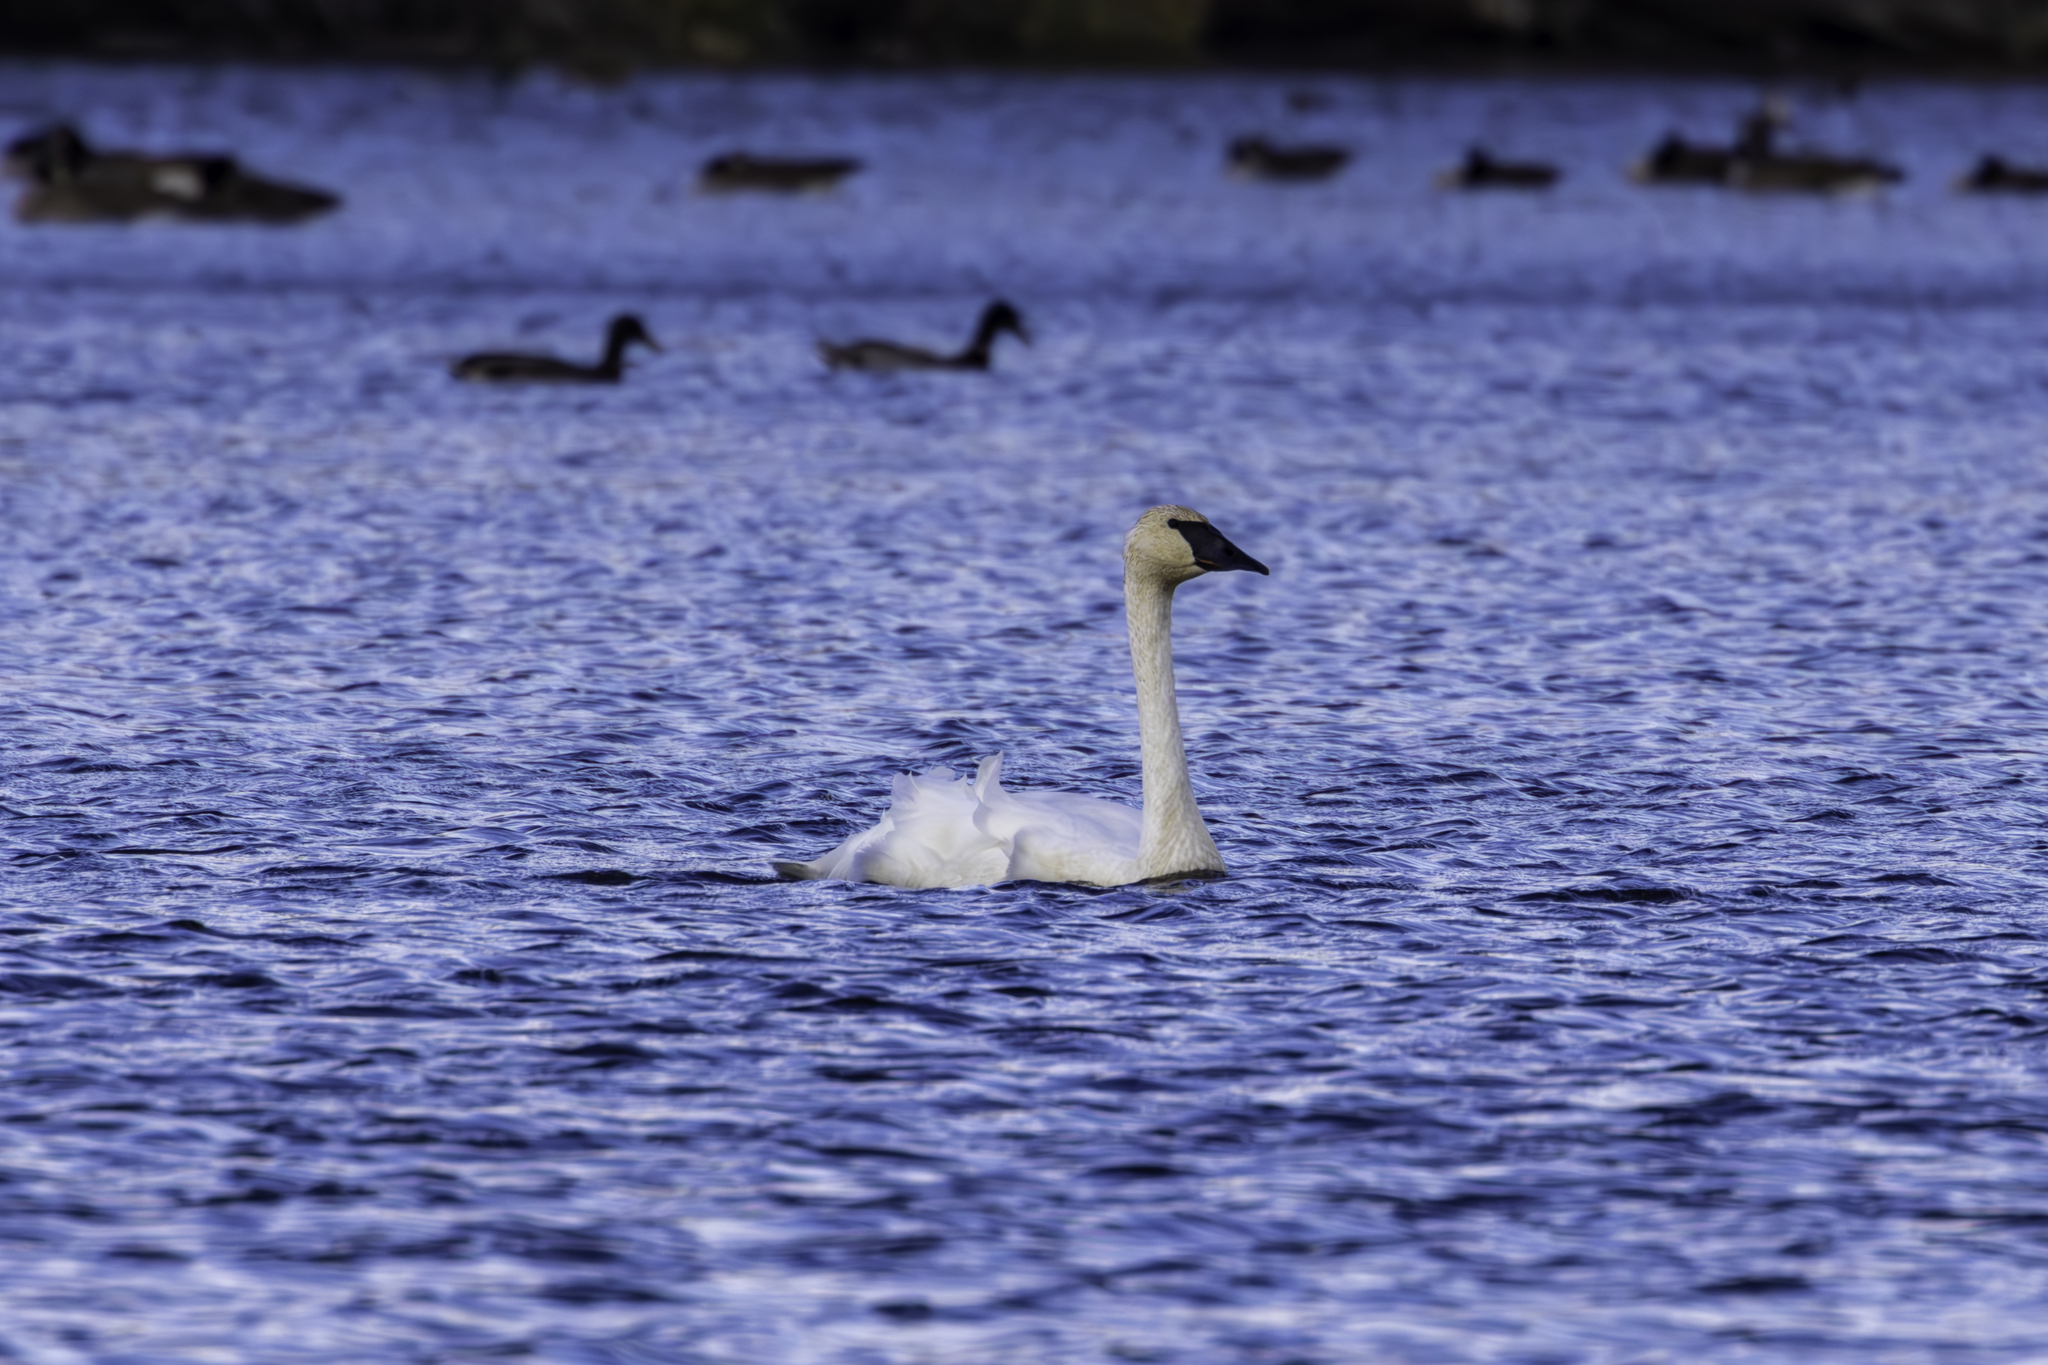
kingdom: Animalia
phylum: Chordata
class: Aves
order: Anseriformes
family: Anatidae
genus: Cygnus
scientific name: Cygnus buccinator
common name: Trumpeter swan
